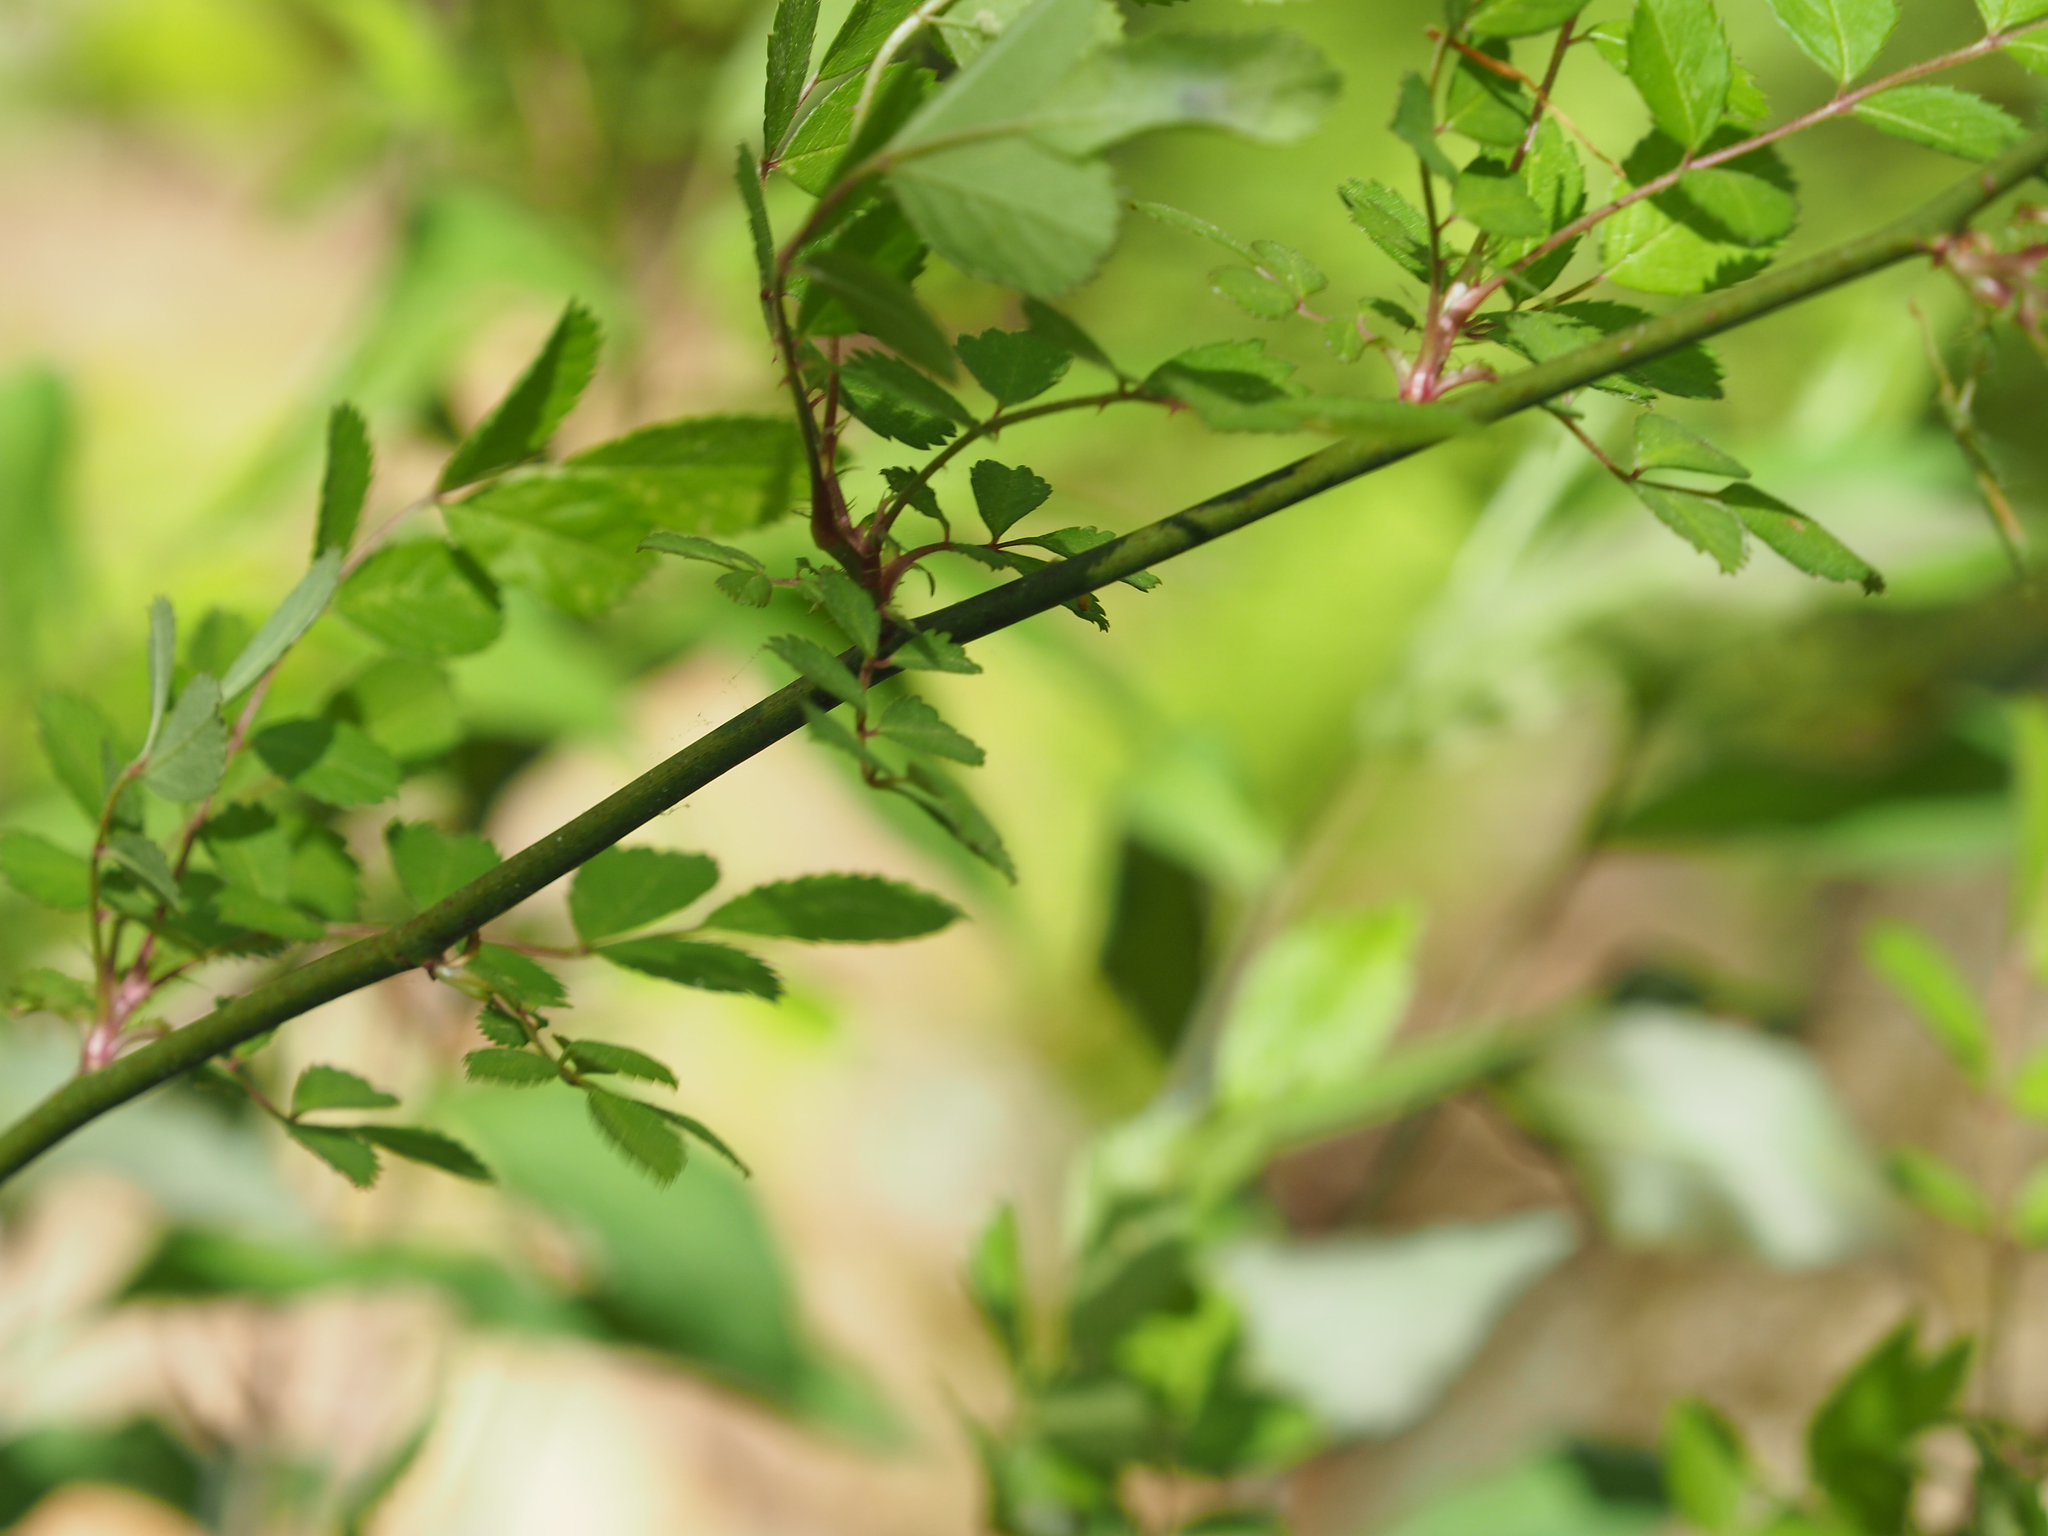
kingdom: Plantae
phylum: Tracheophyta
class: Magnoliopsida
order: Rosales
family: Rosaceae
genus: Rosa
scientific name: Rosa multiflora
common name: Multiflora rose
